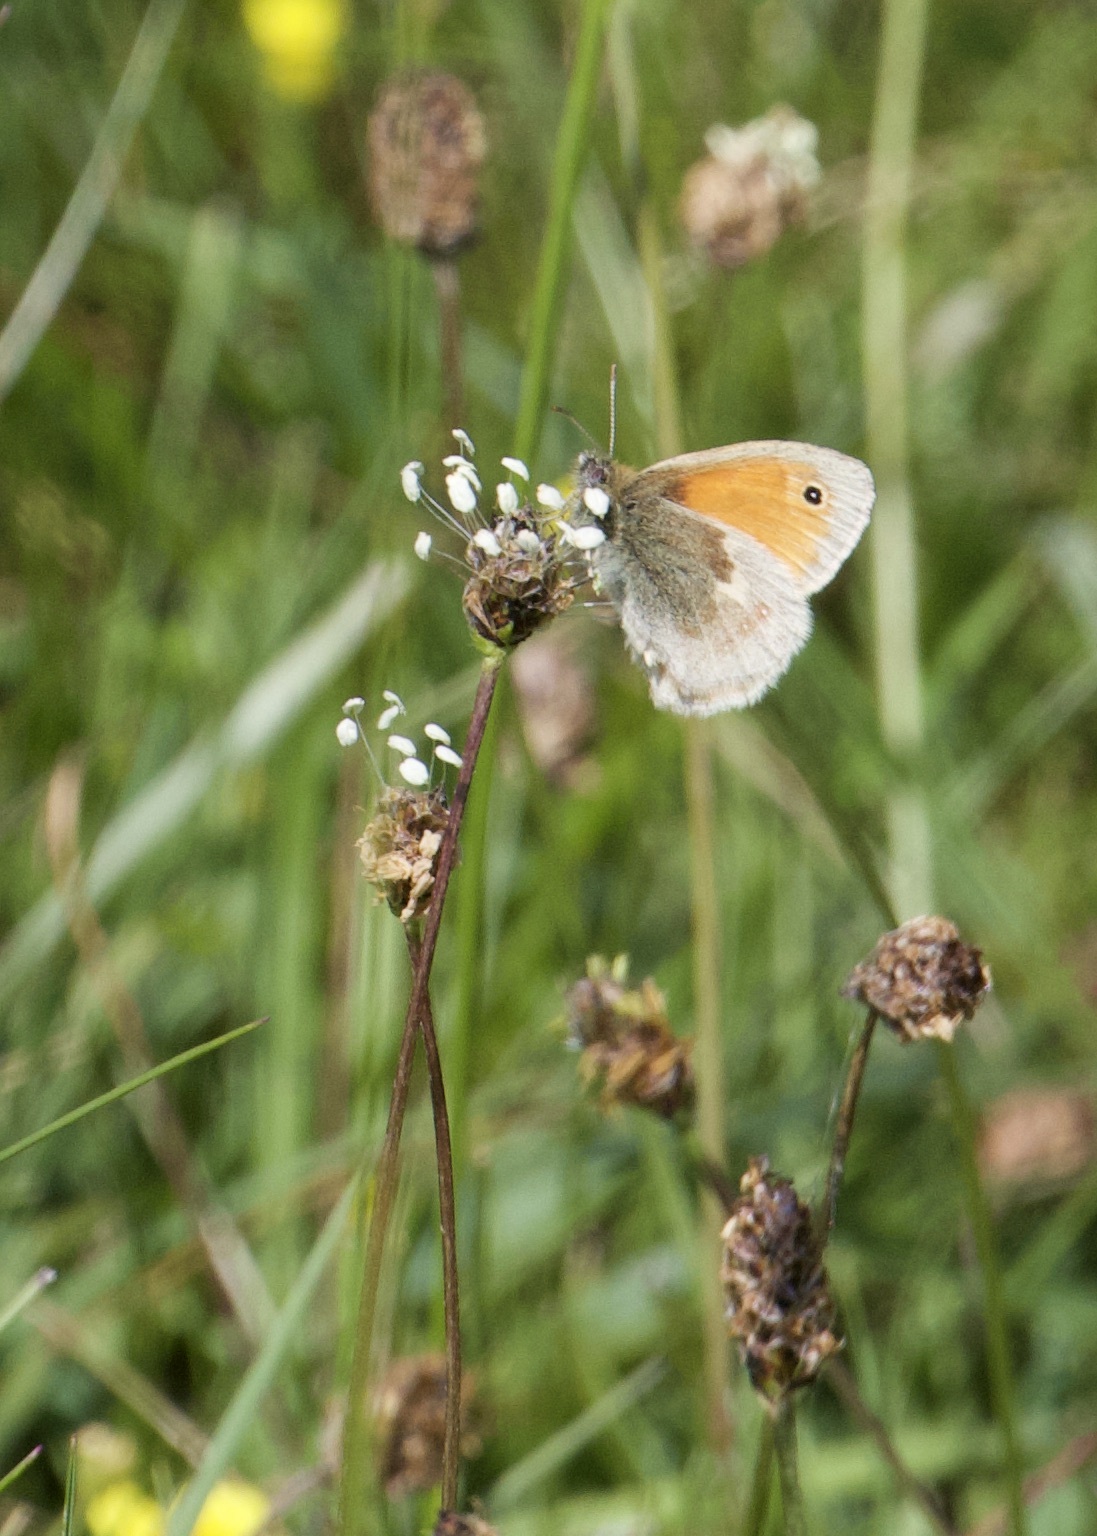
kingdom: Animalia
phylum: Arthropoda
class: Insecta
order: Lepidoptera
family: Nymphalidae
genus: Coenonympha
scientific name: Coenonympha pamphilus
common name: Small heath
